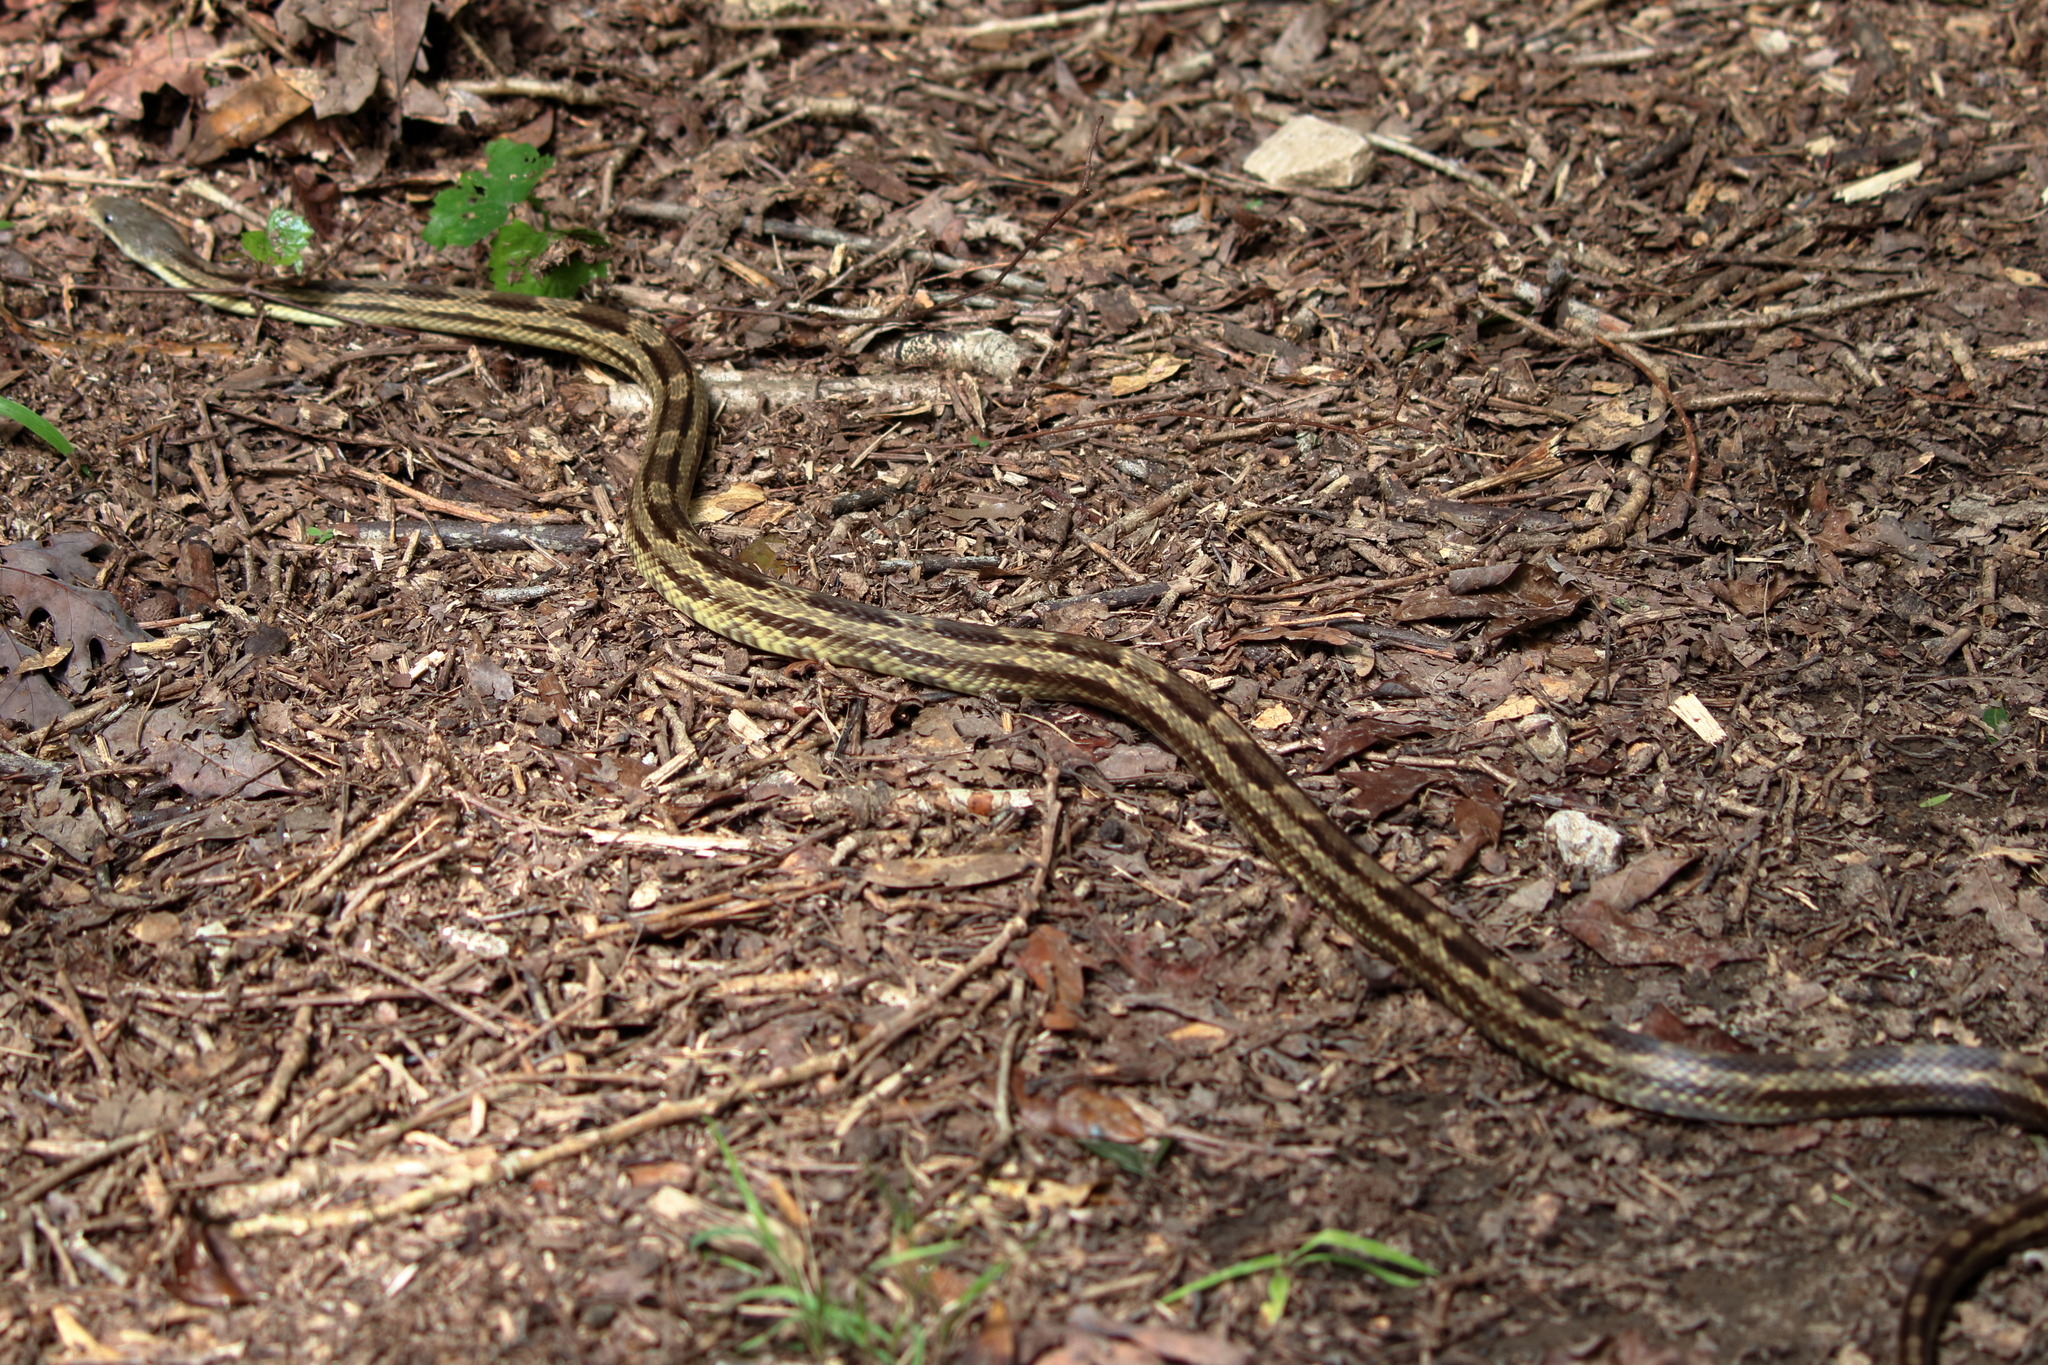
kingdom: Animalia
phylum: Chordata
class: Squamata
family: Colubridae
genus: Pantherophis
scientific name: Pantherophis spiloides
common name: Gray rat snake
